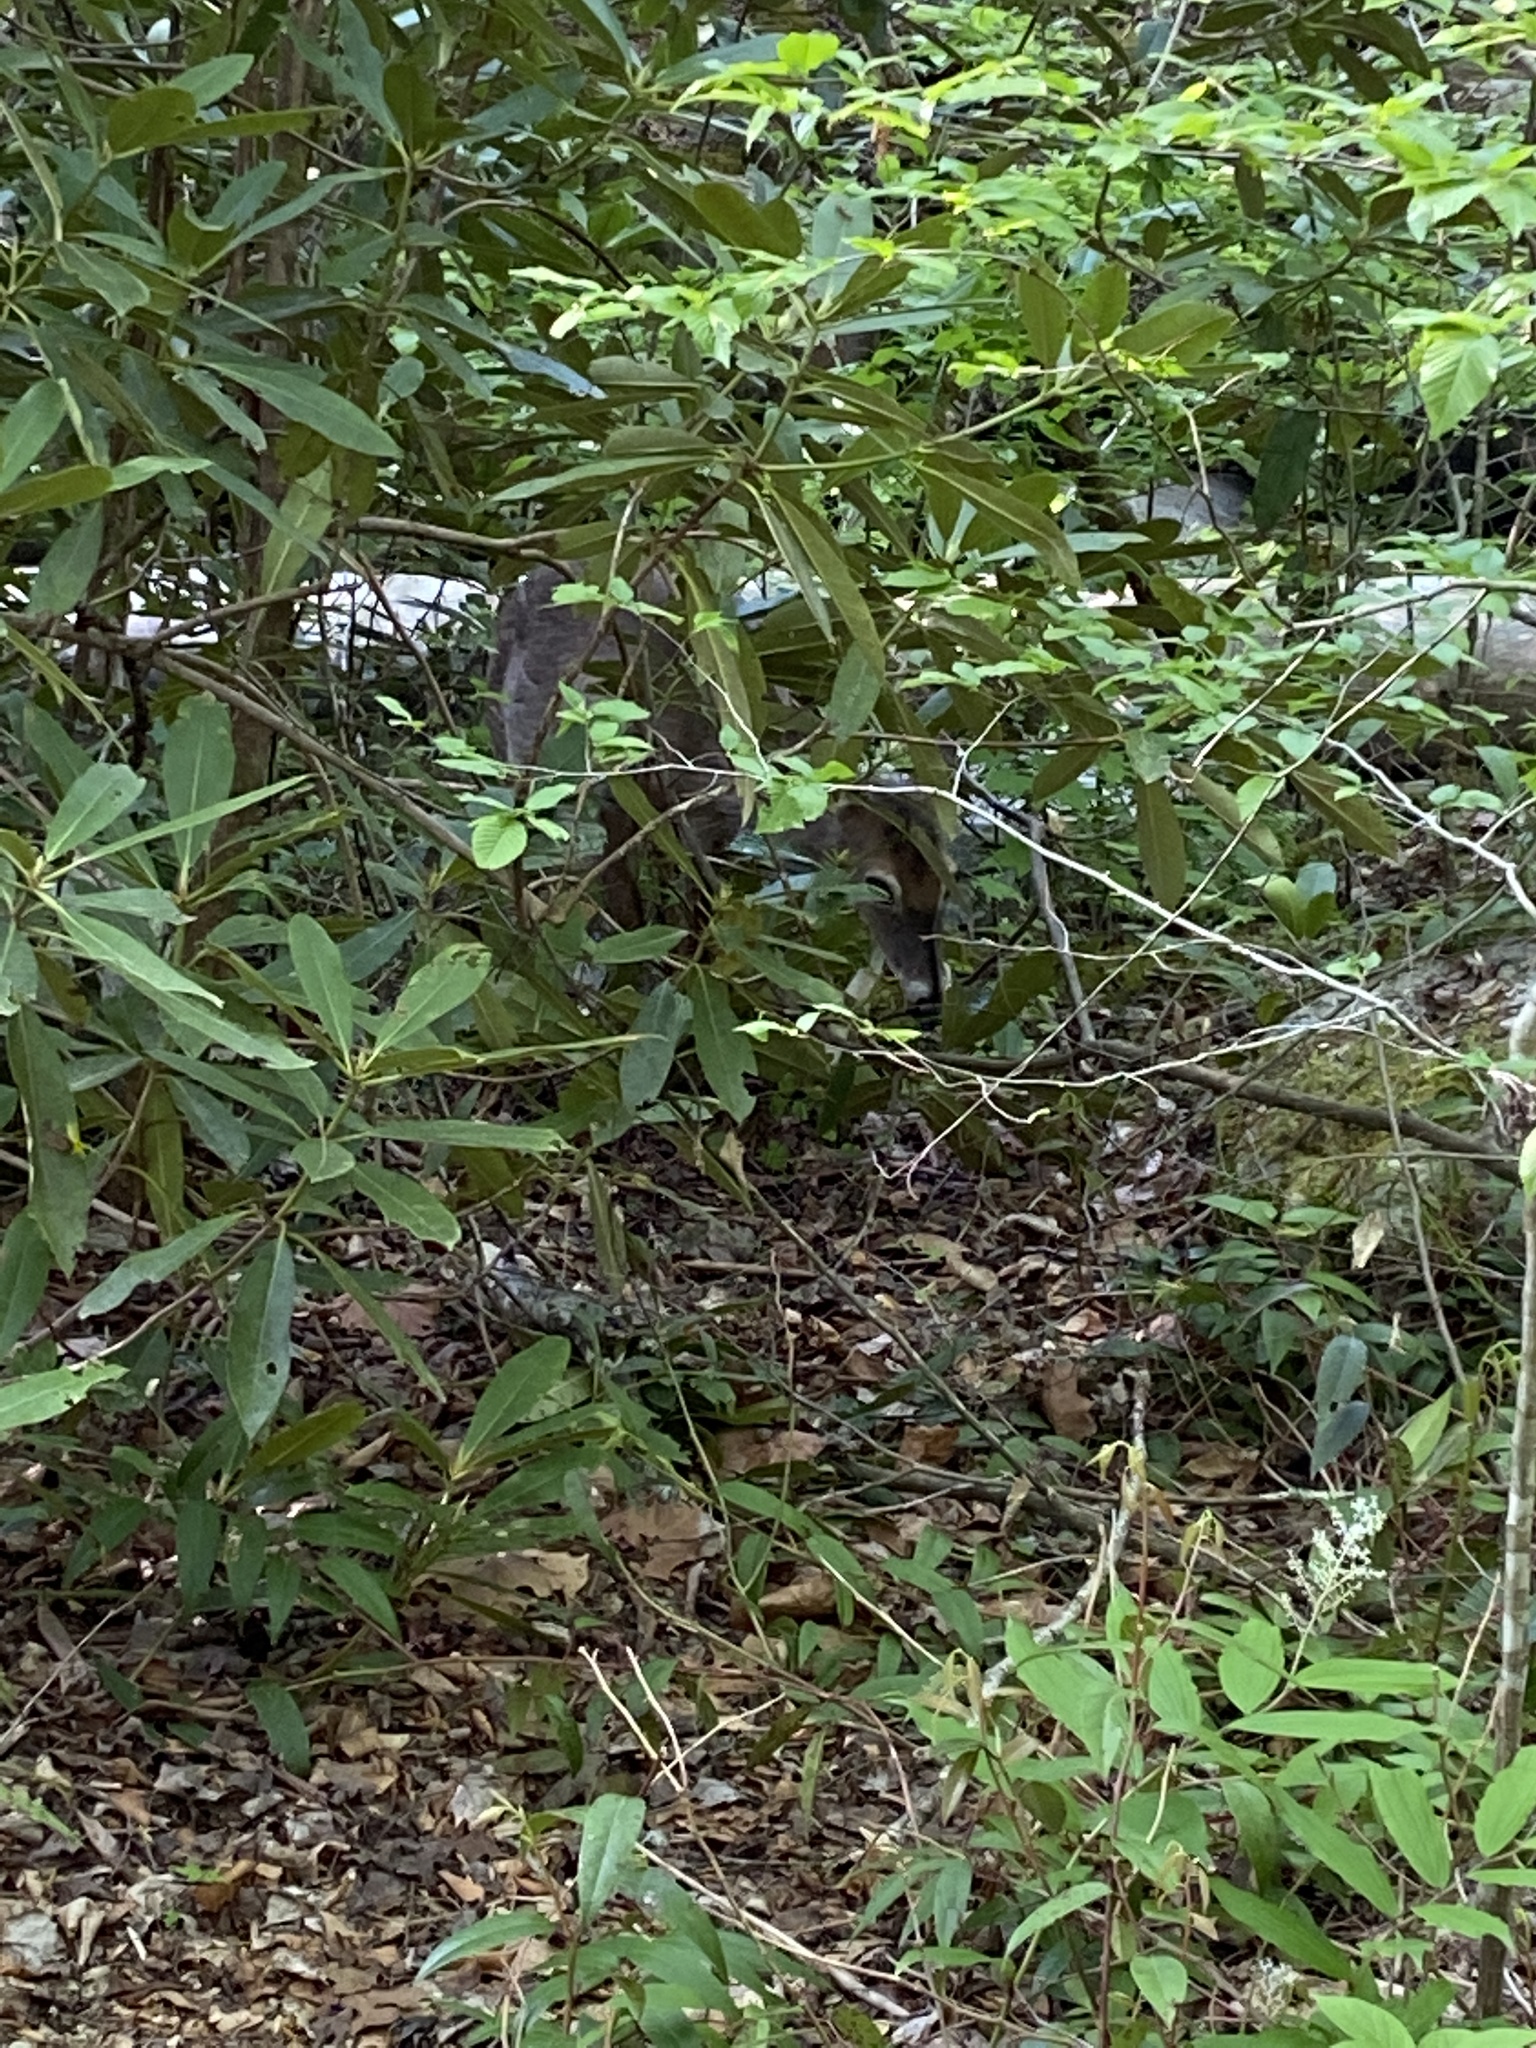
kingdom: Animalia
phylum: Chordata
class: Mammalia
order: Artiodactyla
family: Cervidae
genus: Odocoileus
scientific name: Odocoileus virginianus
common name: White-tailed deer
